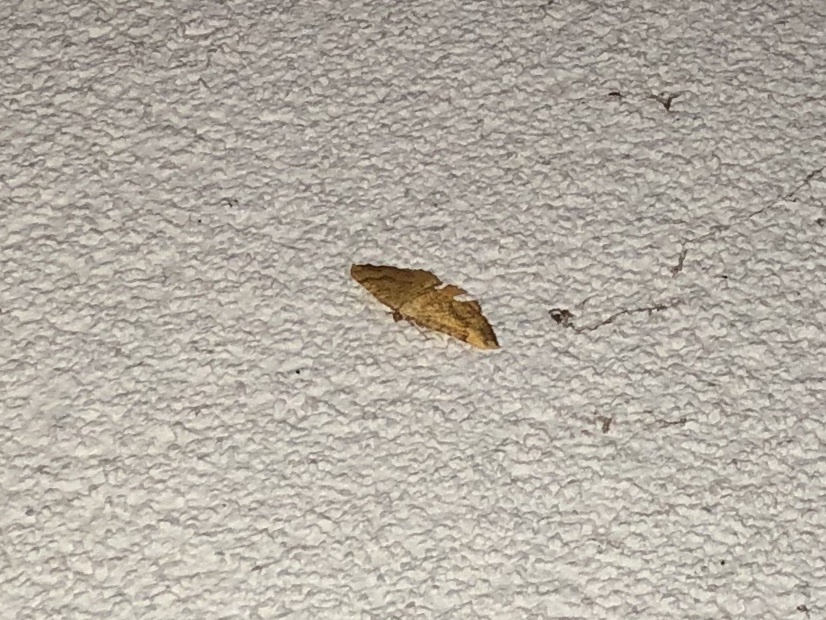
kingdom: Animalia
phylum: Arthropoda
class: Insecta
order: Lepidoptera
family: Geometridae
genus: Camptogramma
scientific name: Camptogramma bilineata
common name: Yellow shell
